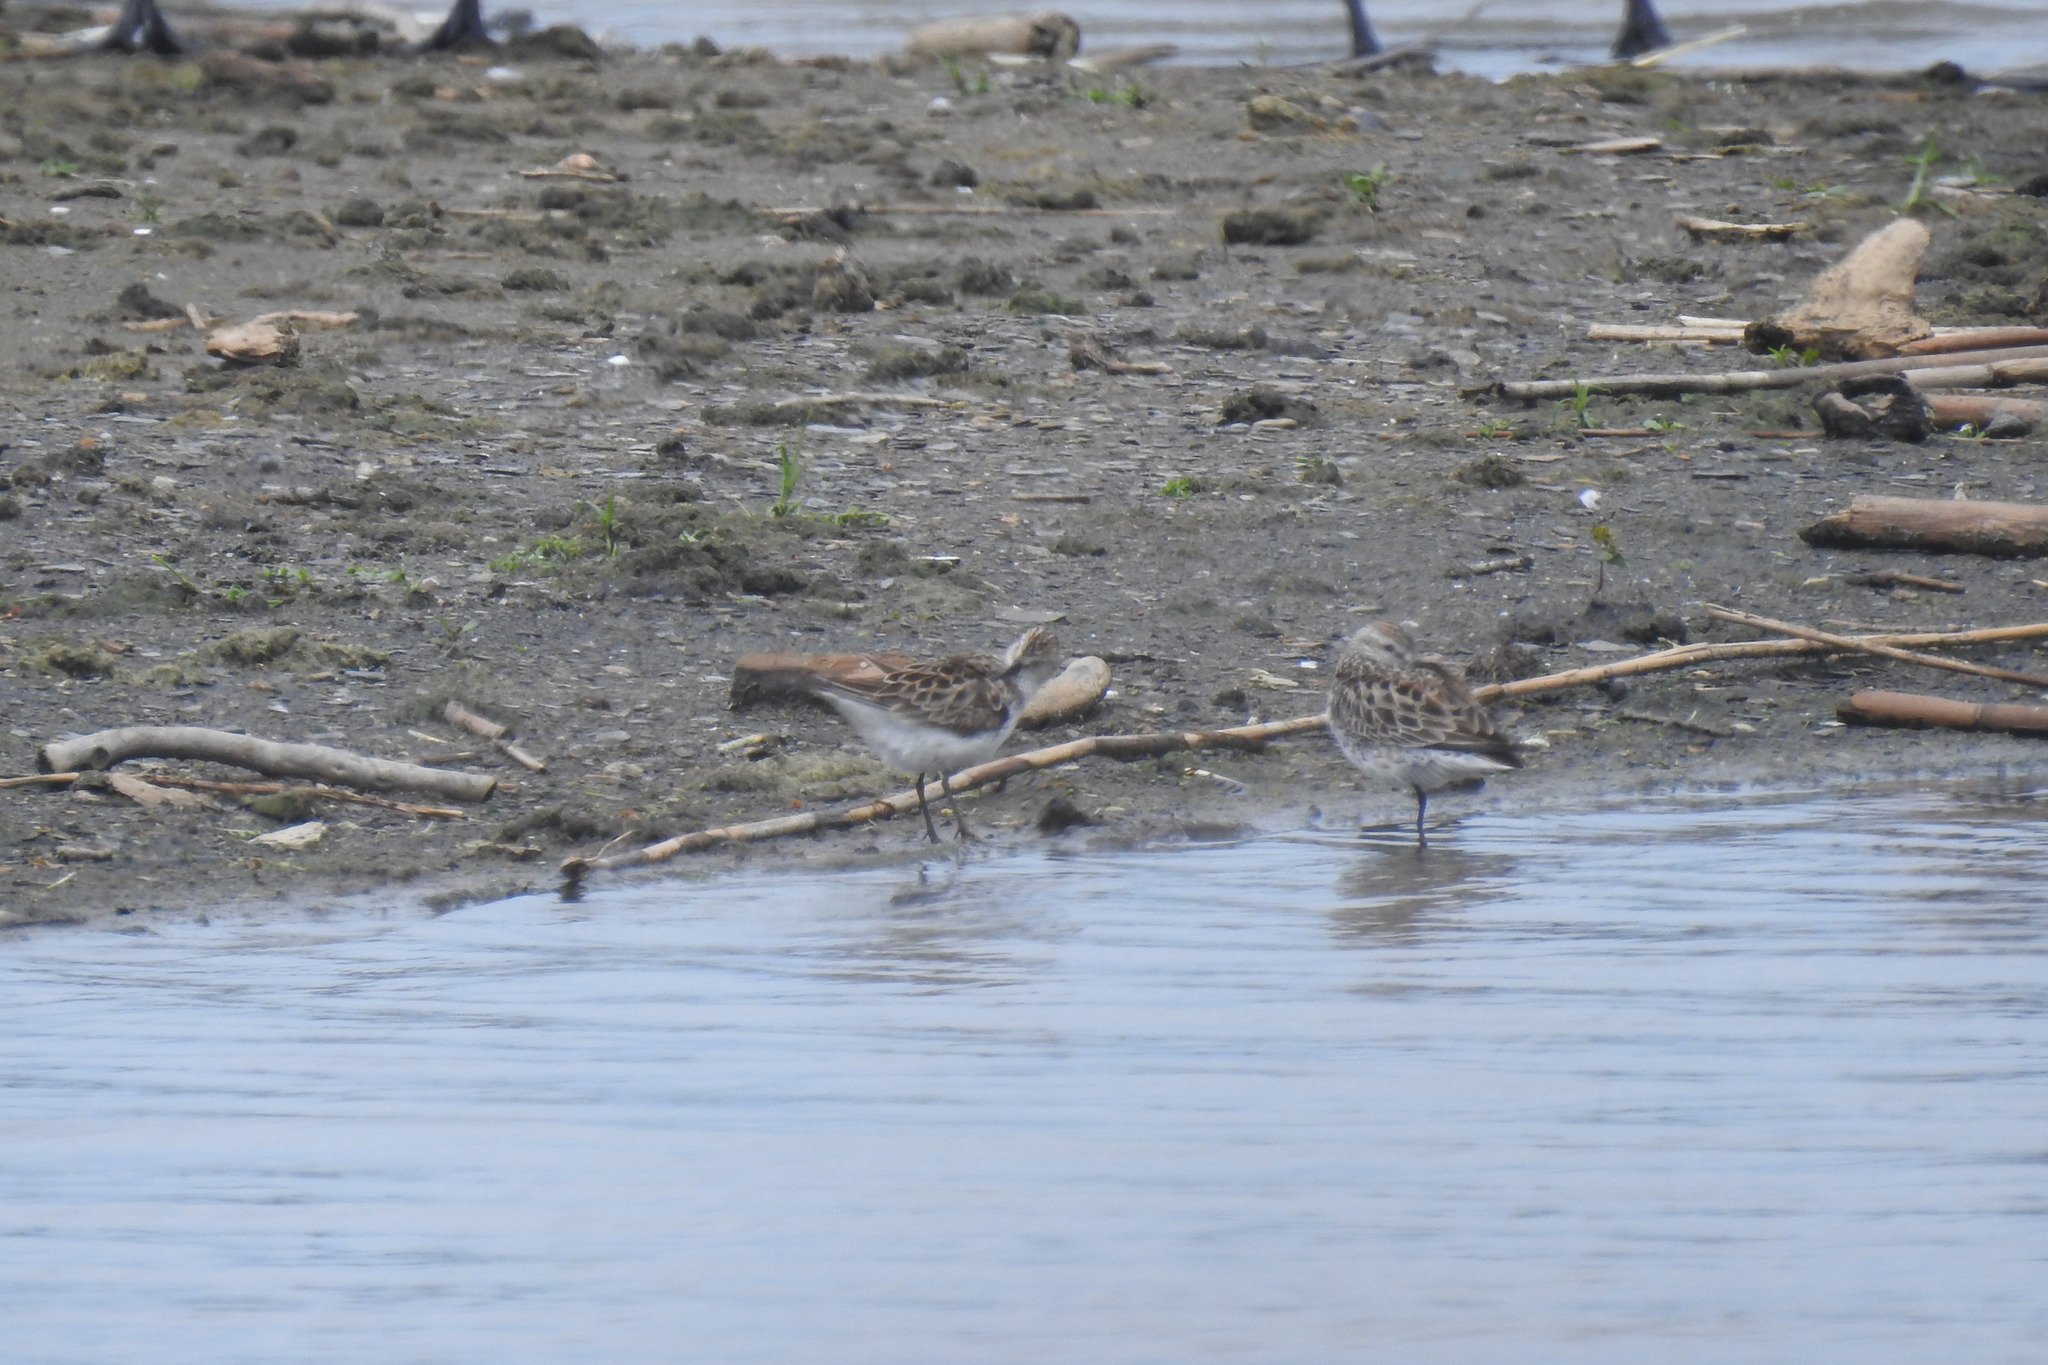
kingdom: Animalia
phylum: Chordata
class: Aves
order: Charadriiformes
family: Scolopacidae
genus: Calidris
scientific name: Calidris fuscicollis
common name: White-rumped sandpiper
